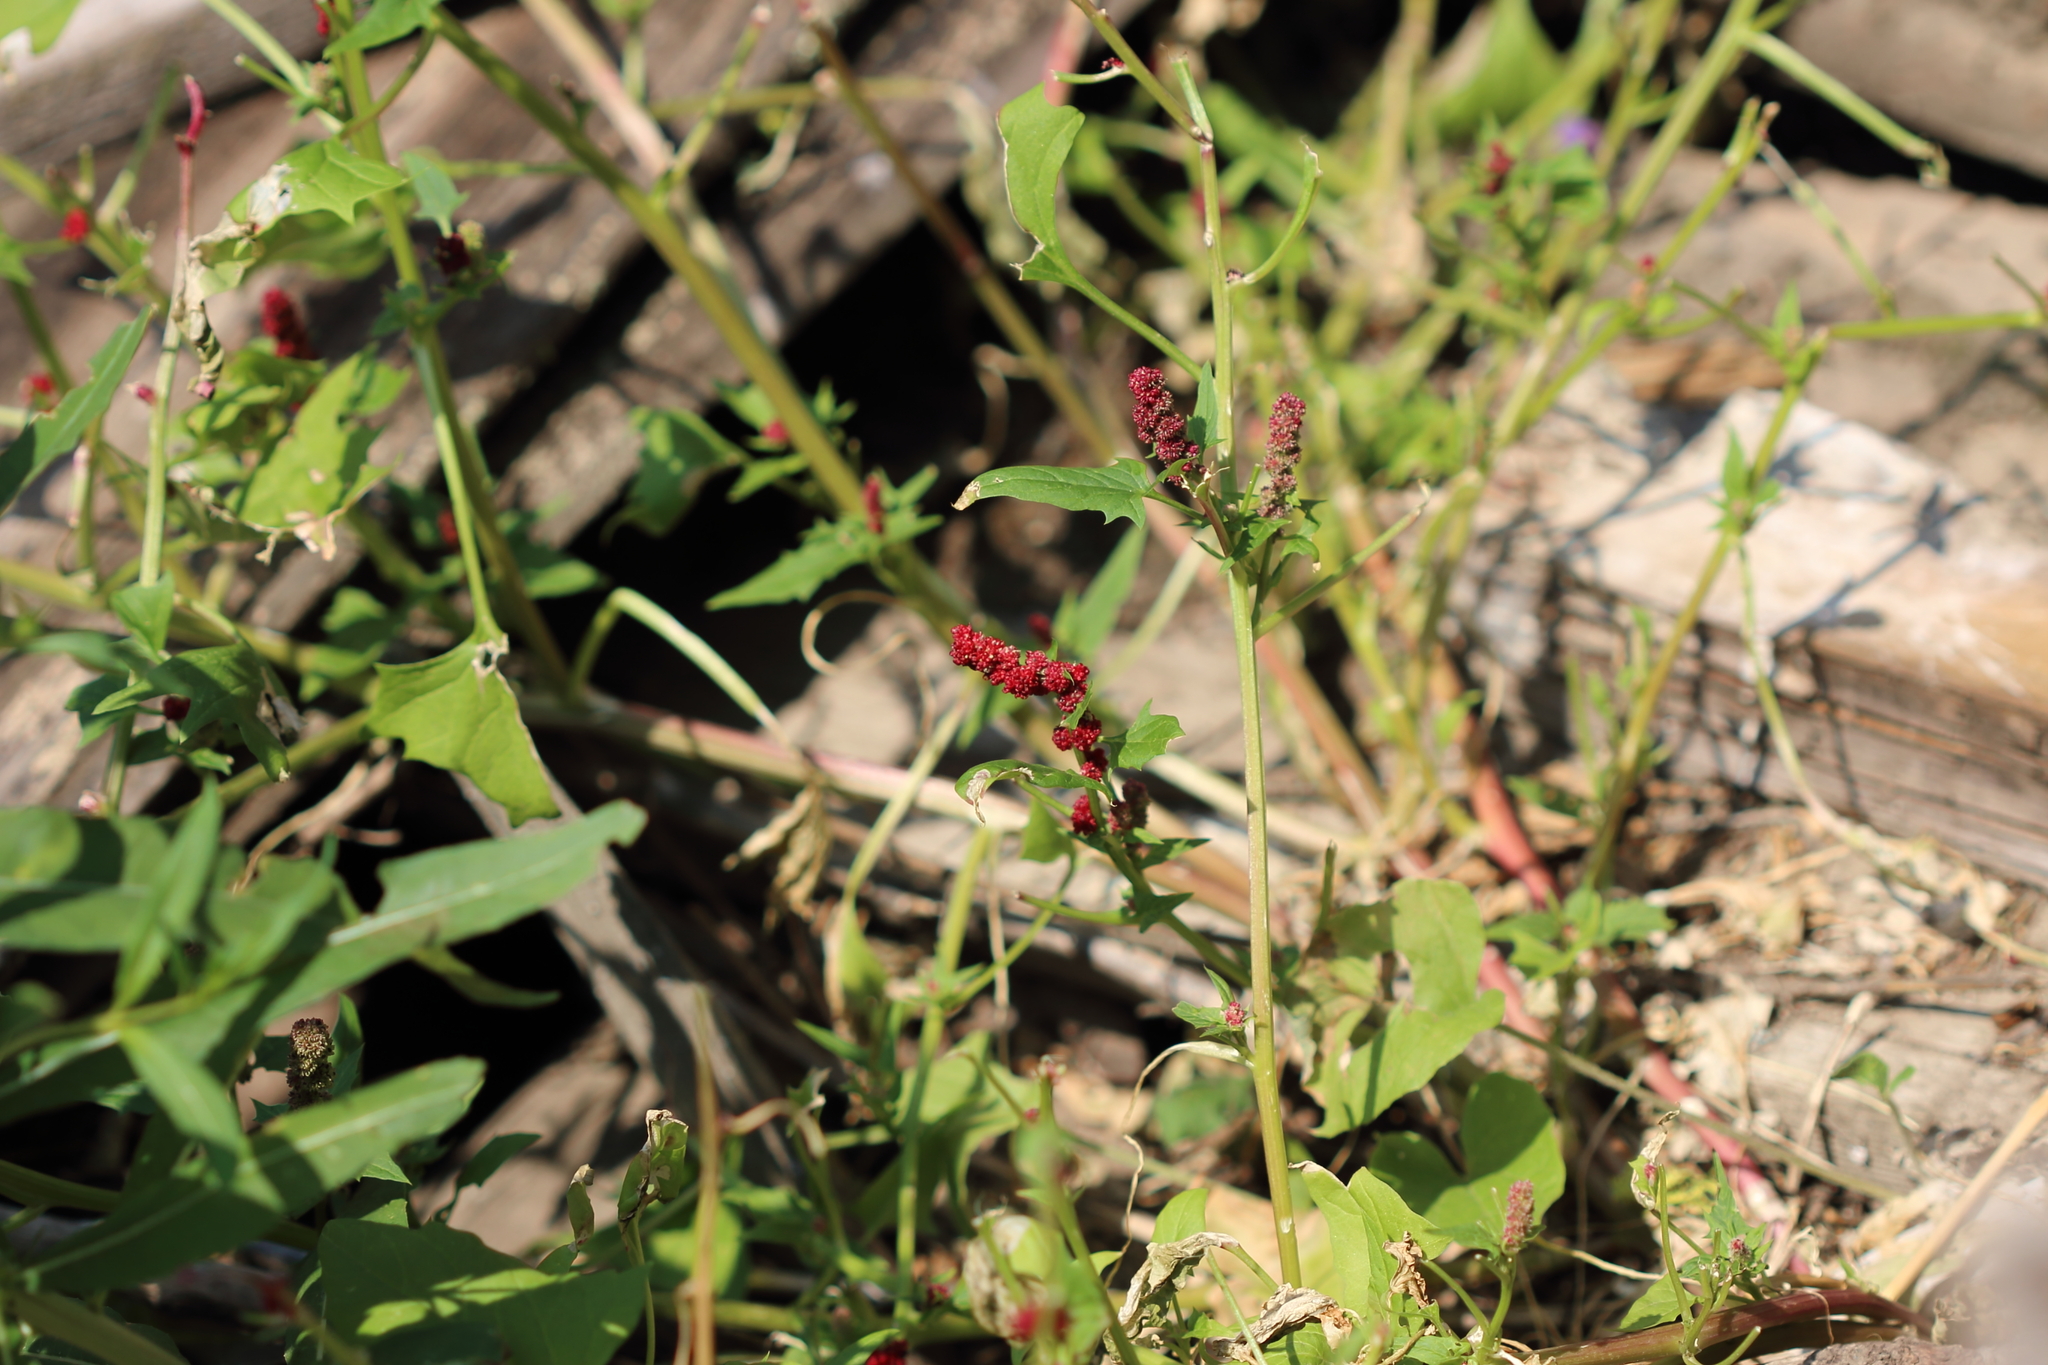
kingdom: Plantae
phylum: Tracheophyta
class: Magnoliopsida
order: Caryophyllales
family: Amaranthaceae
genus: Blitum
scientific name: Blitum capitatum
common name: Strawberry-blight
